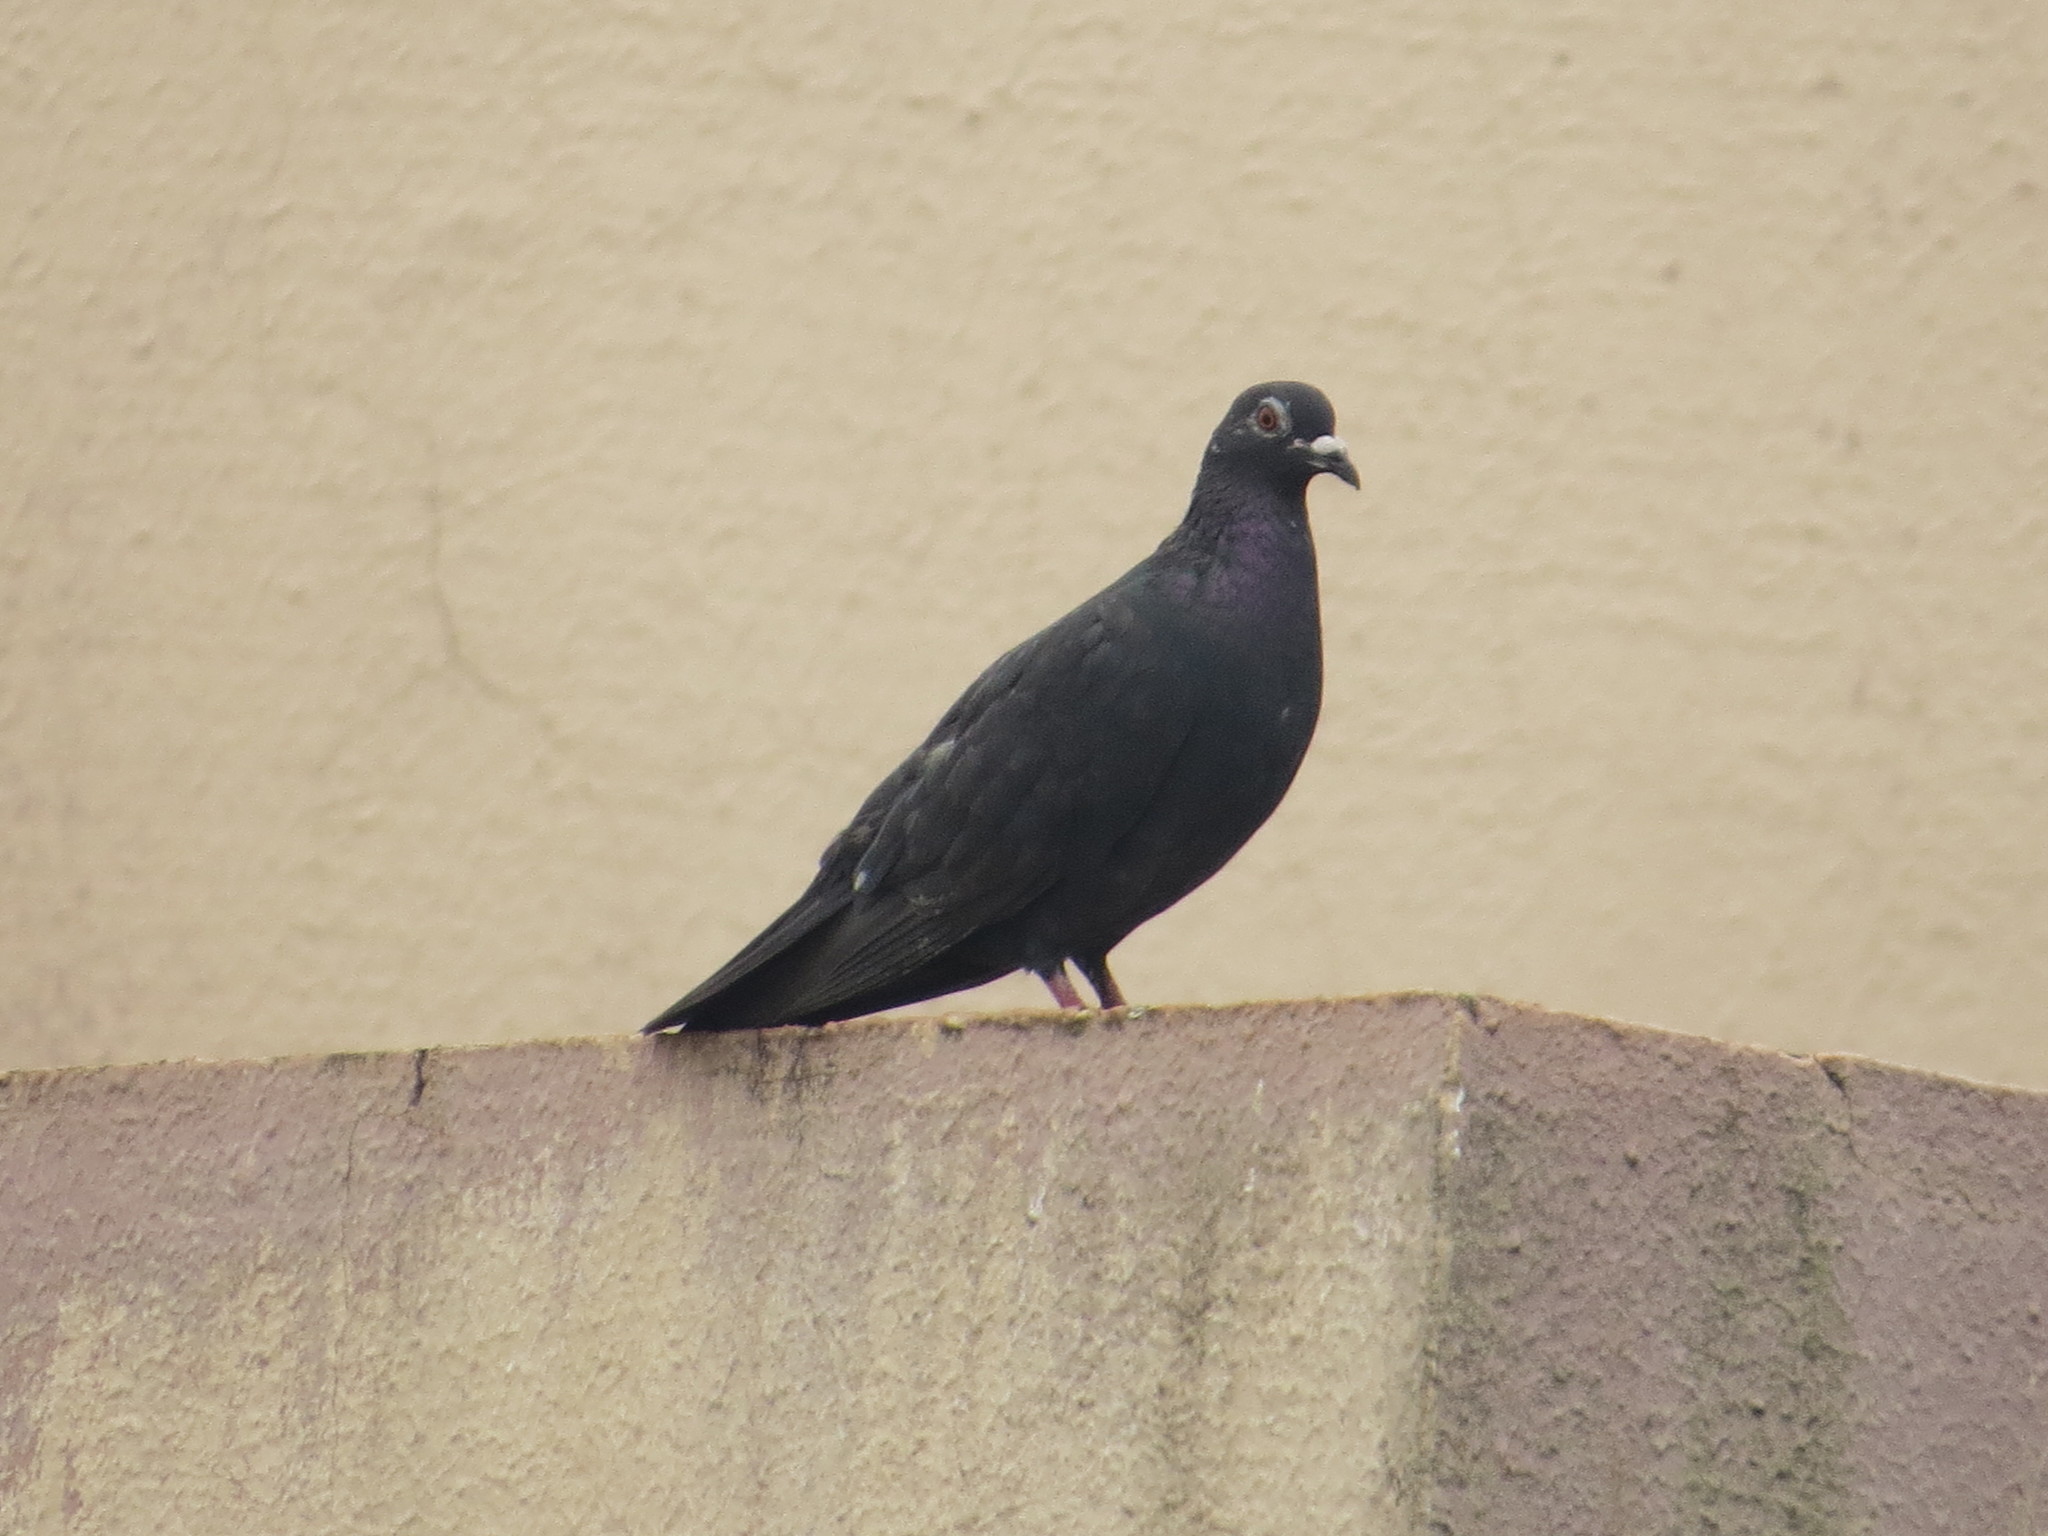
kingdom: Animalia
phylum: Chordata
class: Aves
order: Columbiformes
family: Columbidae
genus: Columba
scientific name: Columba livia
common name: Rock pigeon
